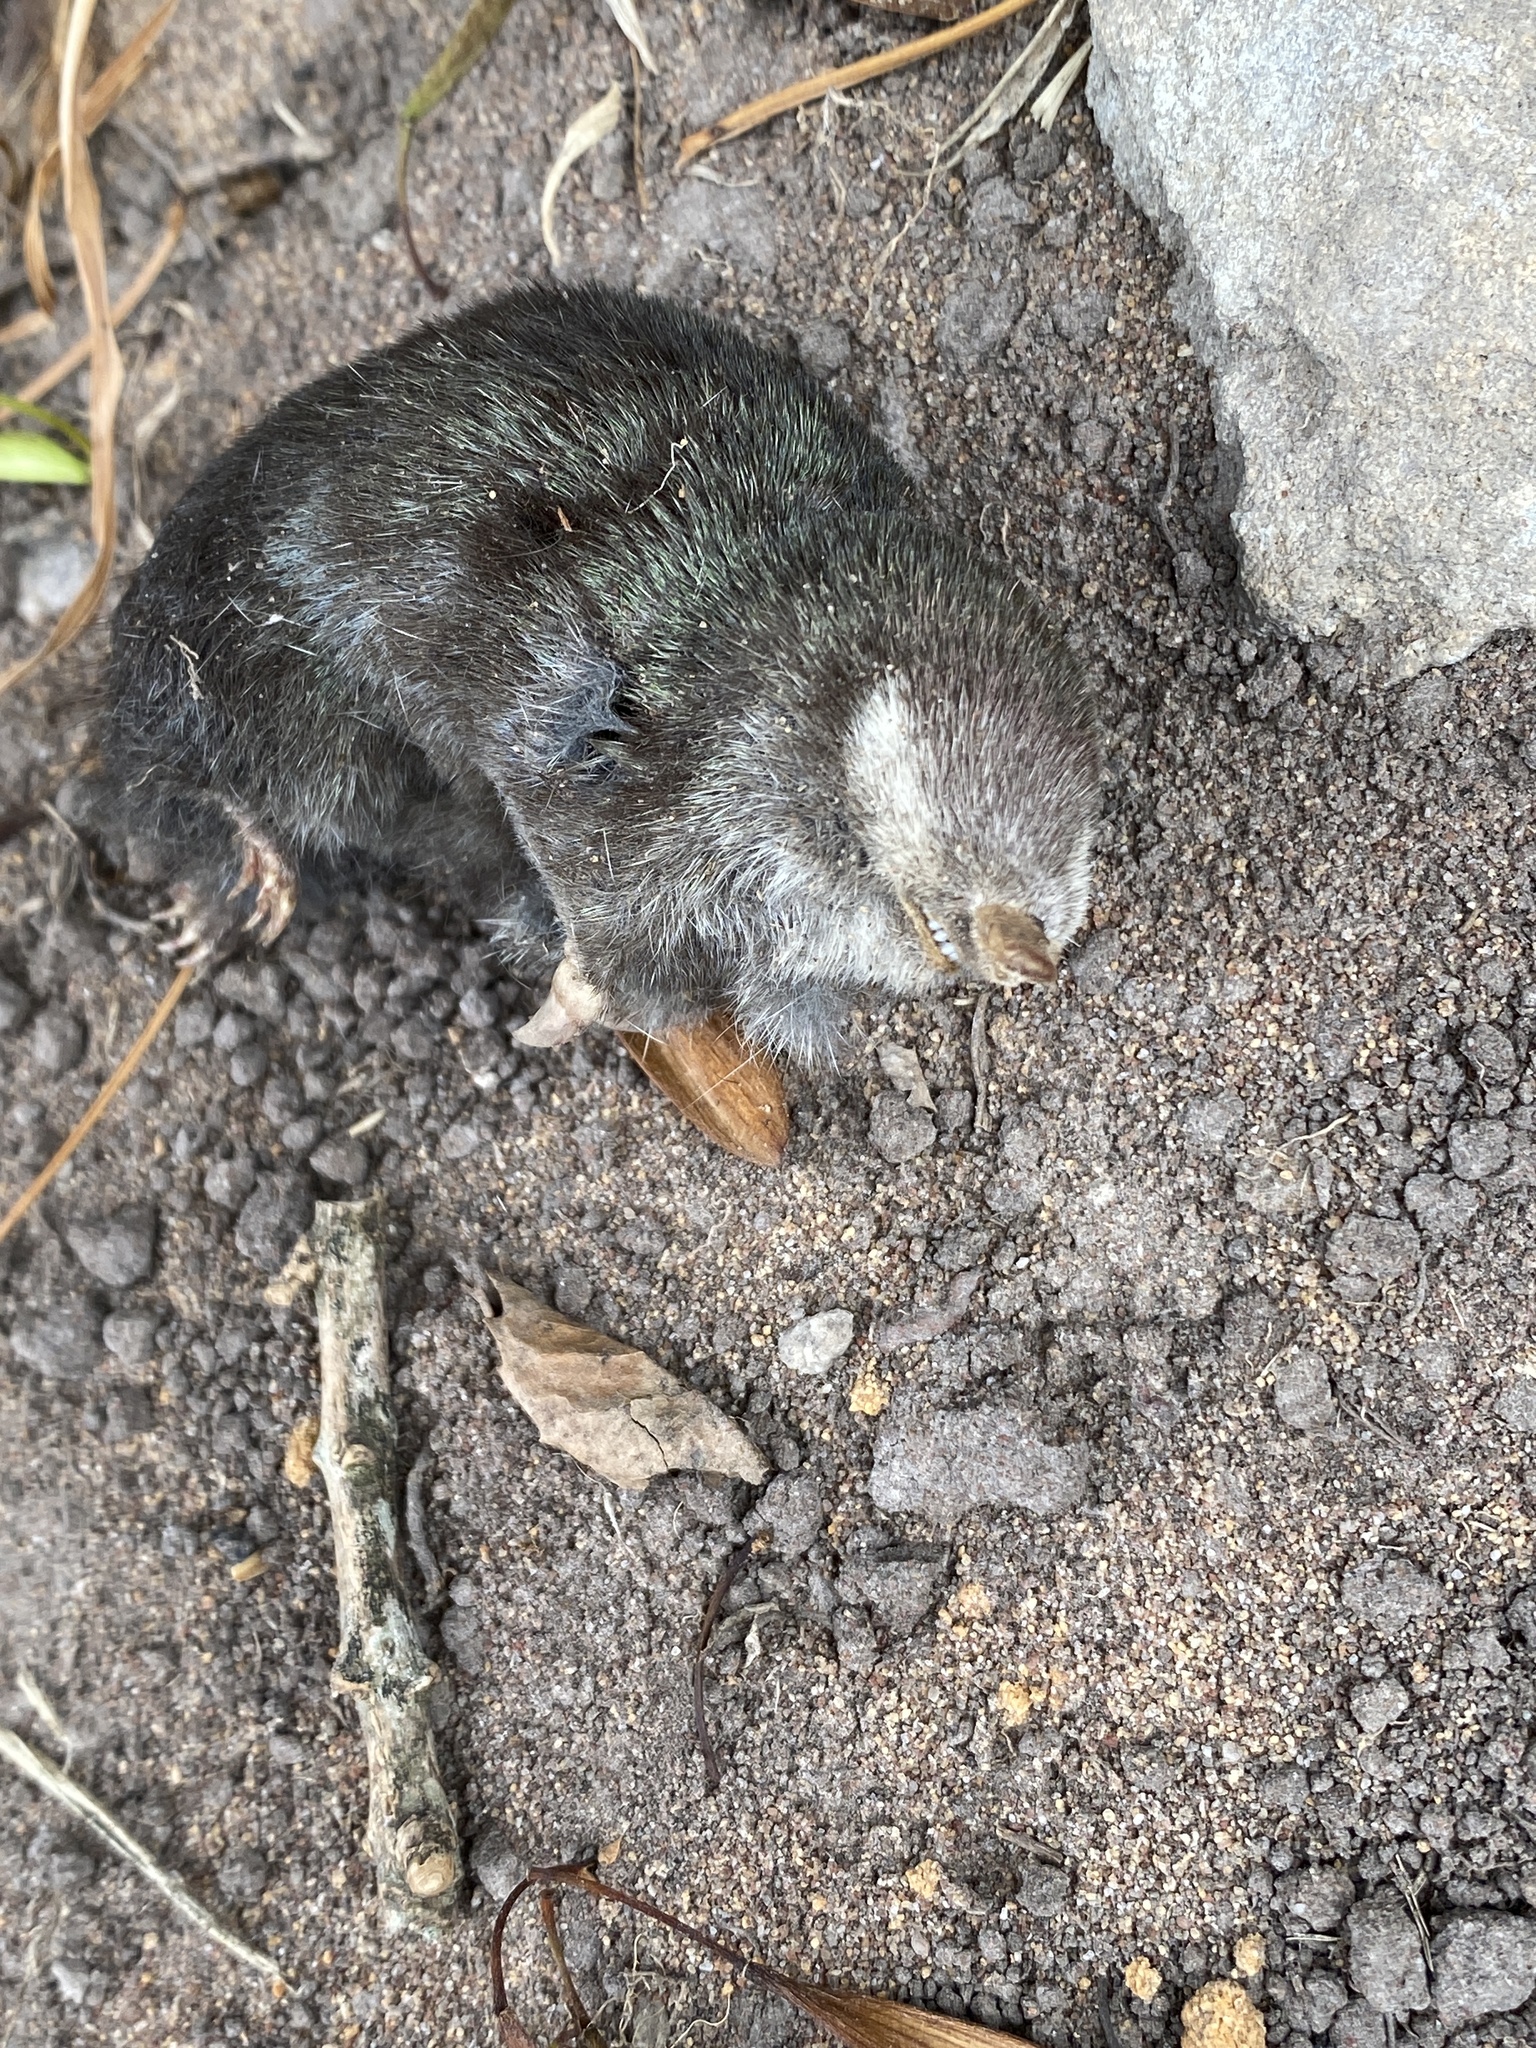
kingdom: Animalia
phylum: Chordata
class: Mammalia
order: Afrosoricida
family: Chrysochloridae
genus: Chrysochloris
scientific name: Chrysochloris asiatica
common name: Cape golden mole
